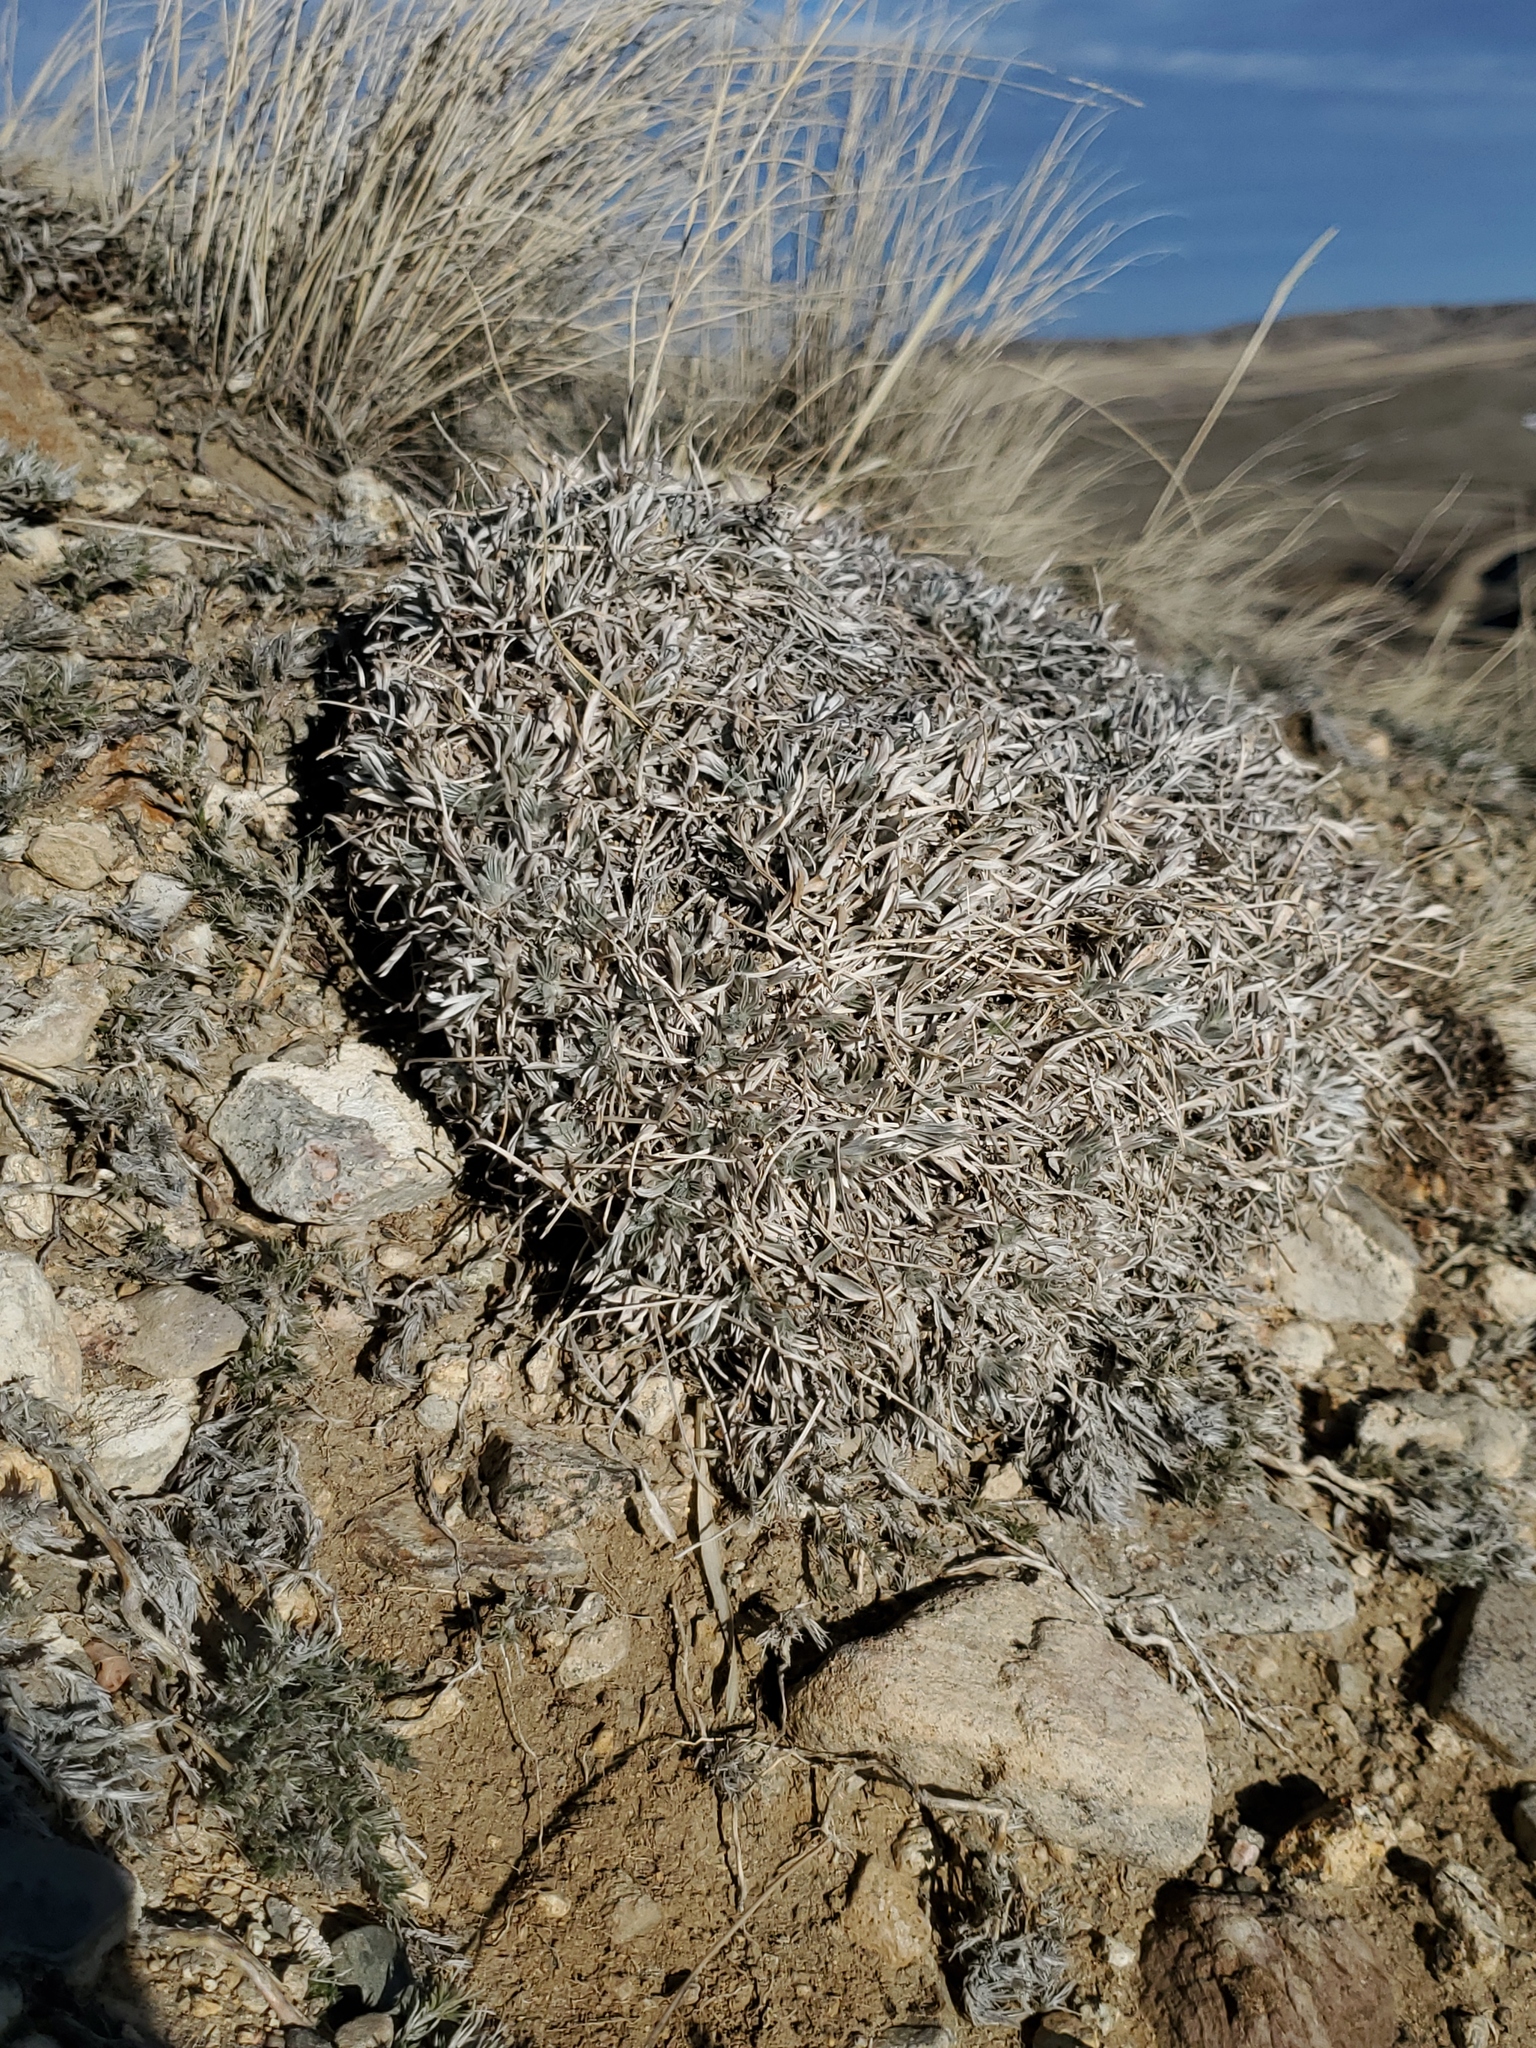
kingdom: Plantae
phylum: Tracheophyta
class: Magnoliopsida
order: Fabales
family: Fabaceae
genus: Astragalus
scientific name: Astragalus gilviflorus
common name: Cushion milk-vetch
